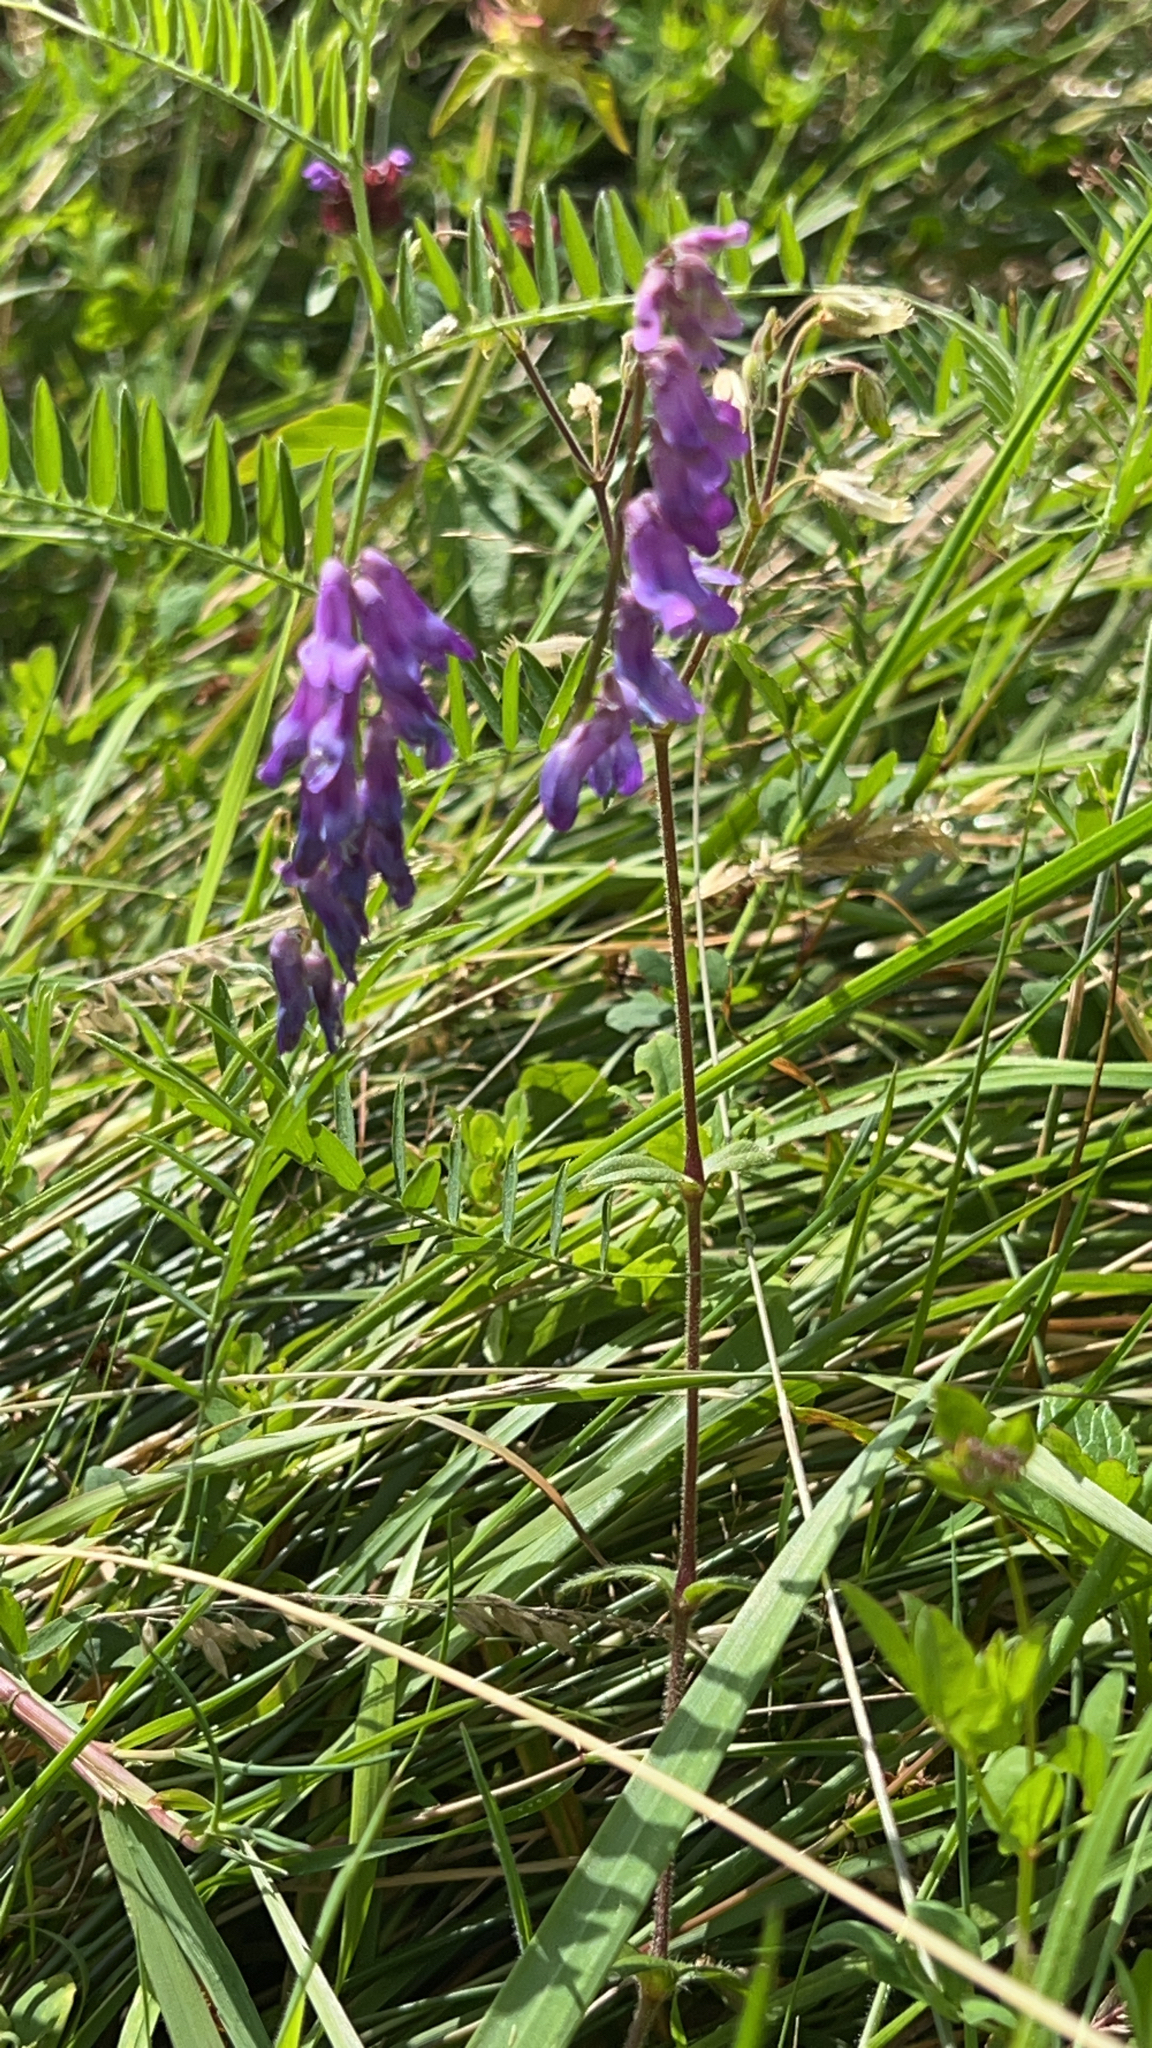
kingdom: Plantae
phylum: Tracheophyta
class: Magnoliopsida
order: Fabales
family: Fabaceae
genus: Vicia
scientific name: Vicia cracca
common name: Bird vetch
